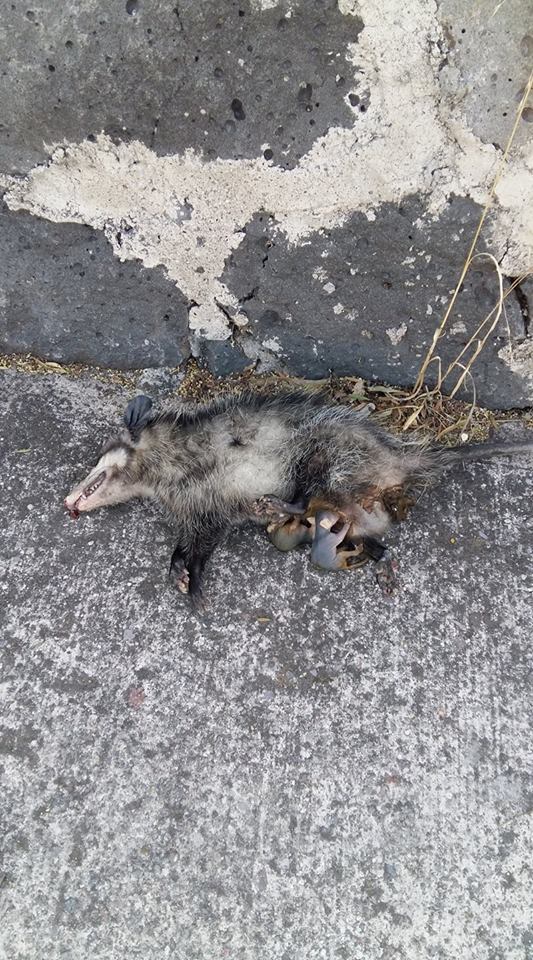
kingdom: Animalia
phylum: Chordata
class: Mammalia
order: Didelphimorphia
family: Didelphidae
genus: Didelphis
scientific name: Didelphis virginiana
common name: Virginia opossum
